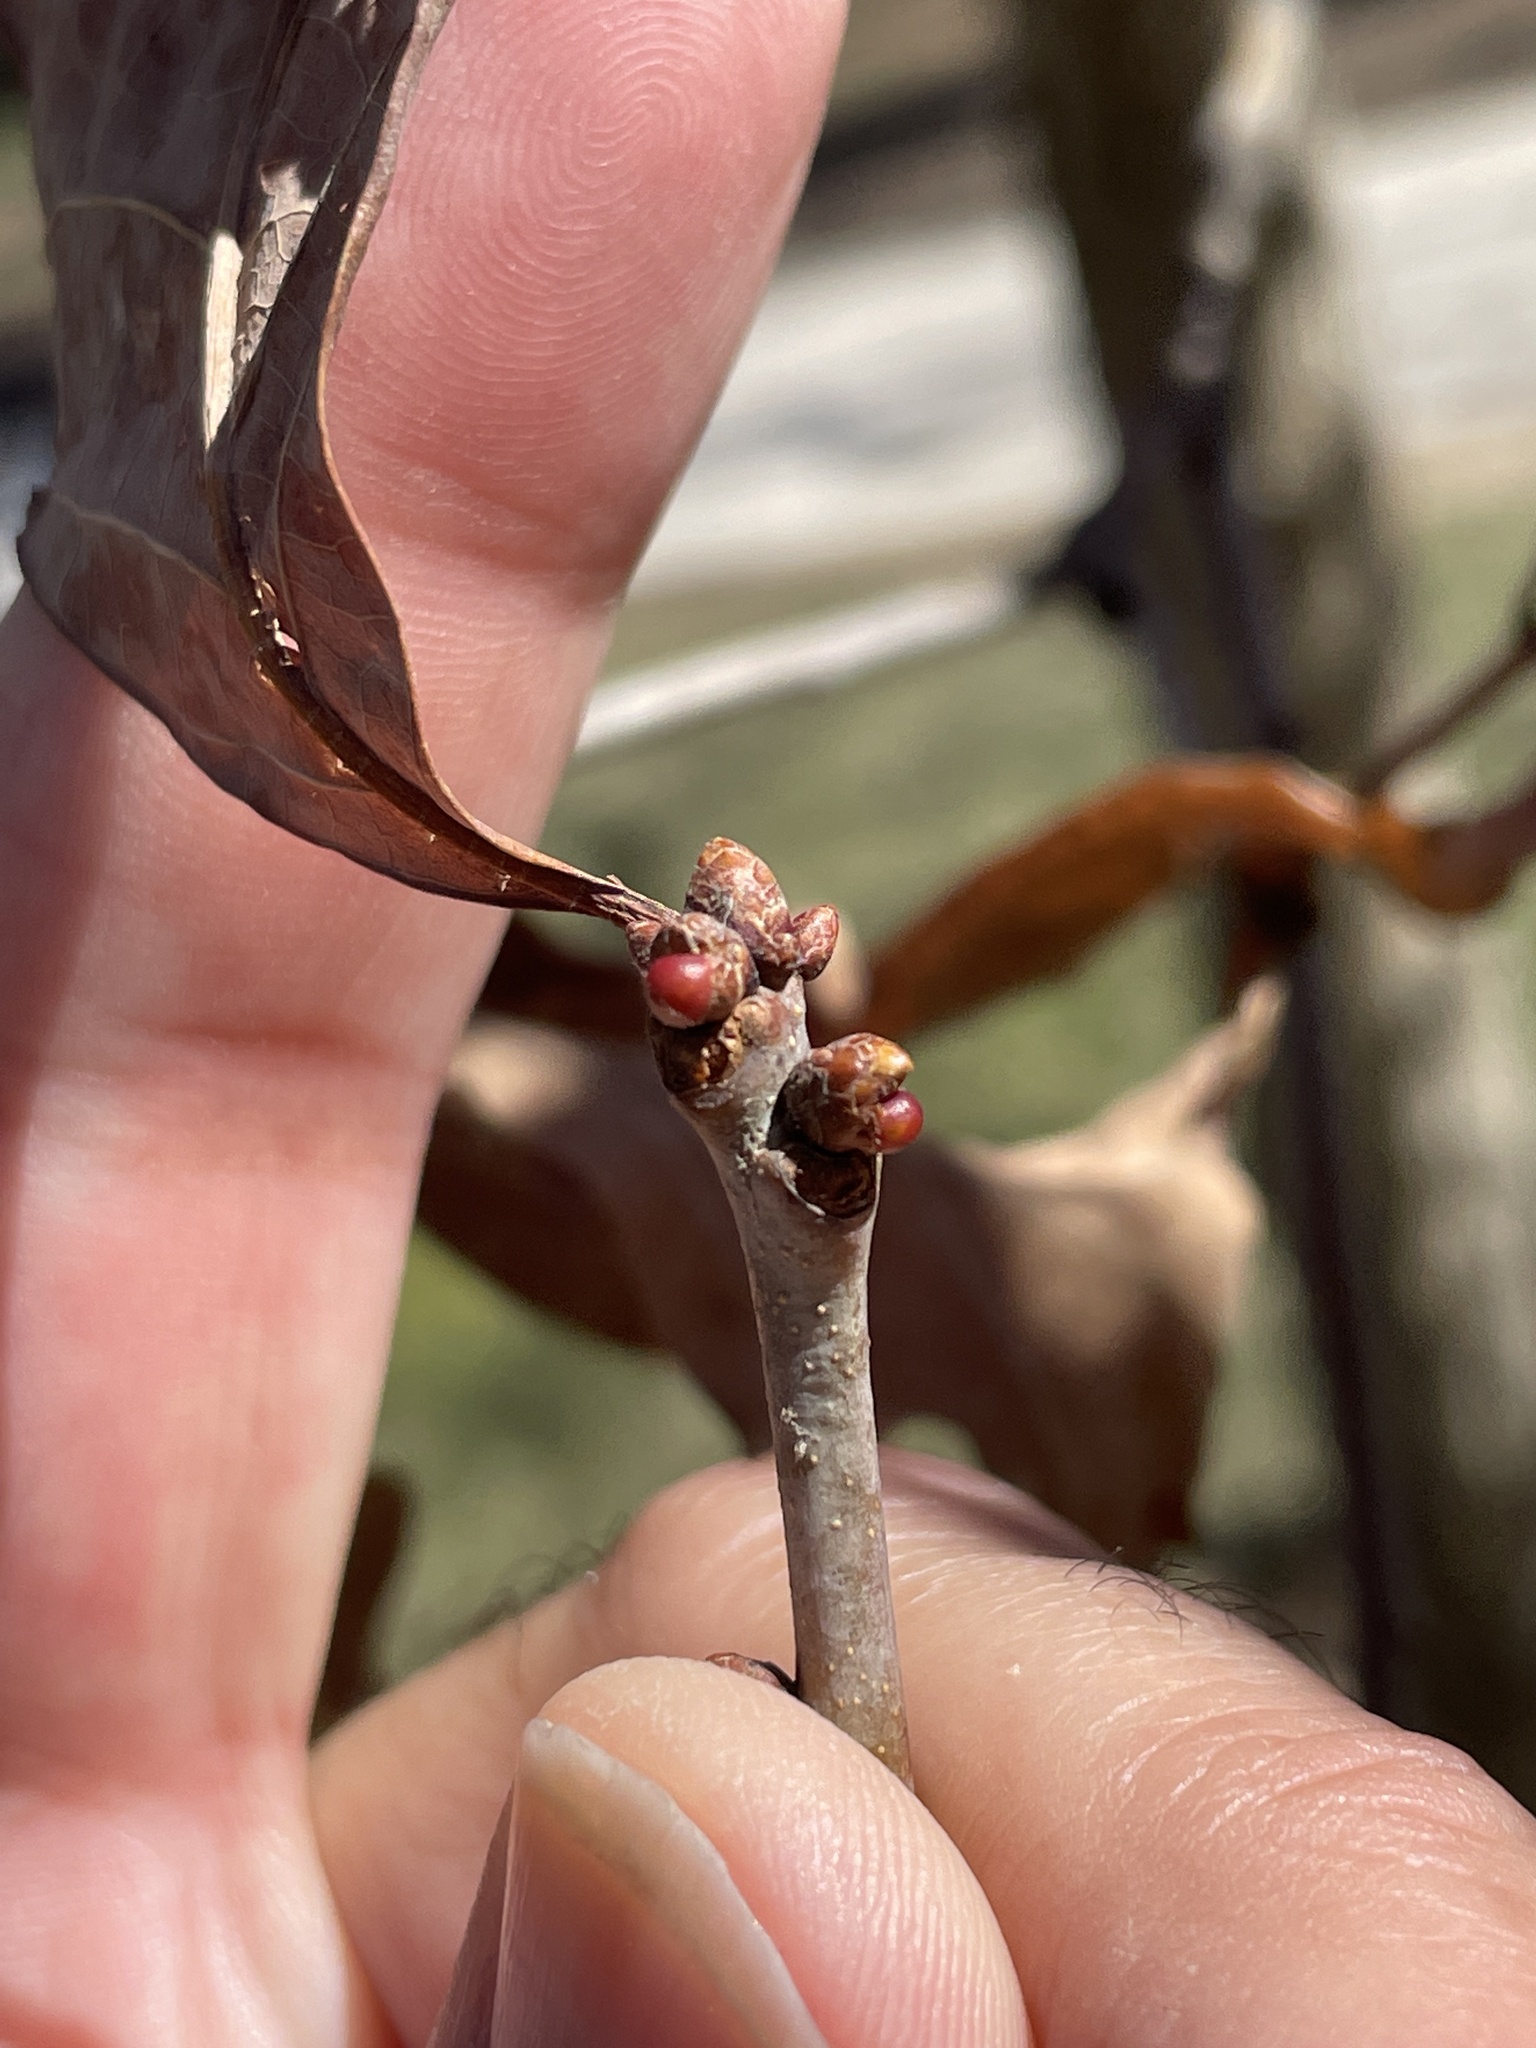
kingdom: Animalia
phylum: Arthropoda
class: Insecta
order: Hymenoptera
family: Cynipidae
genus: Neuroterus
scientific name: Neuroterus
